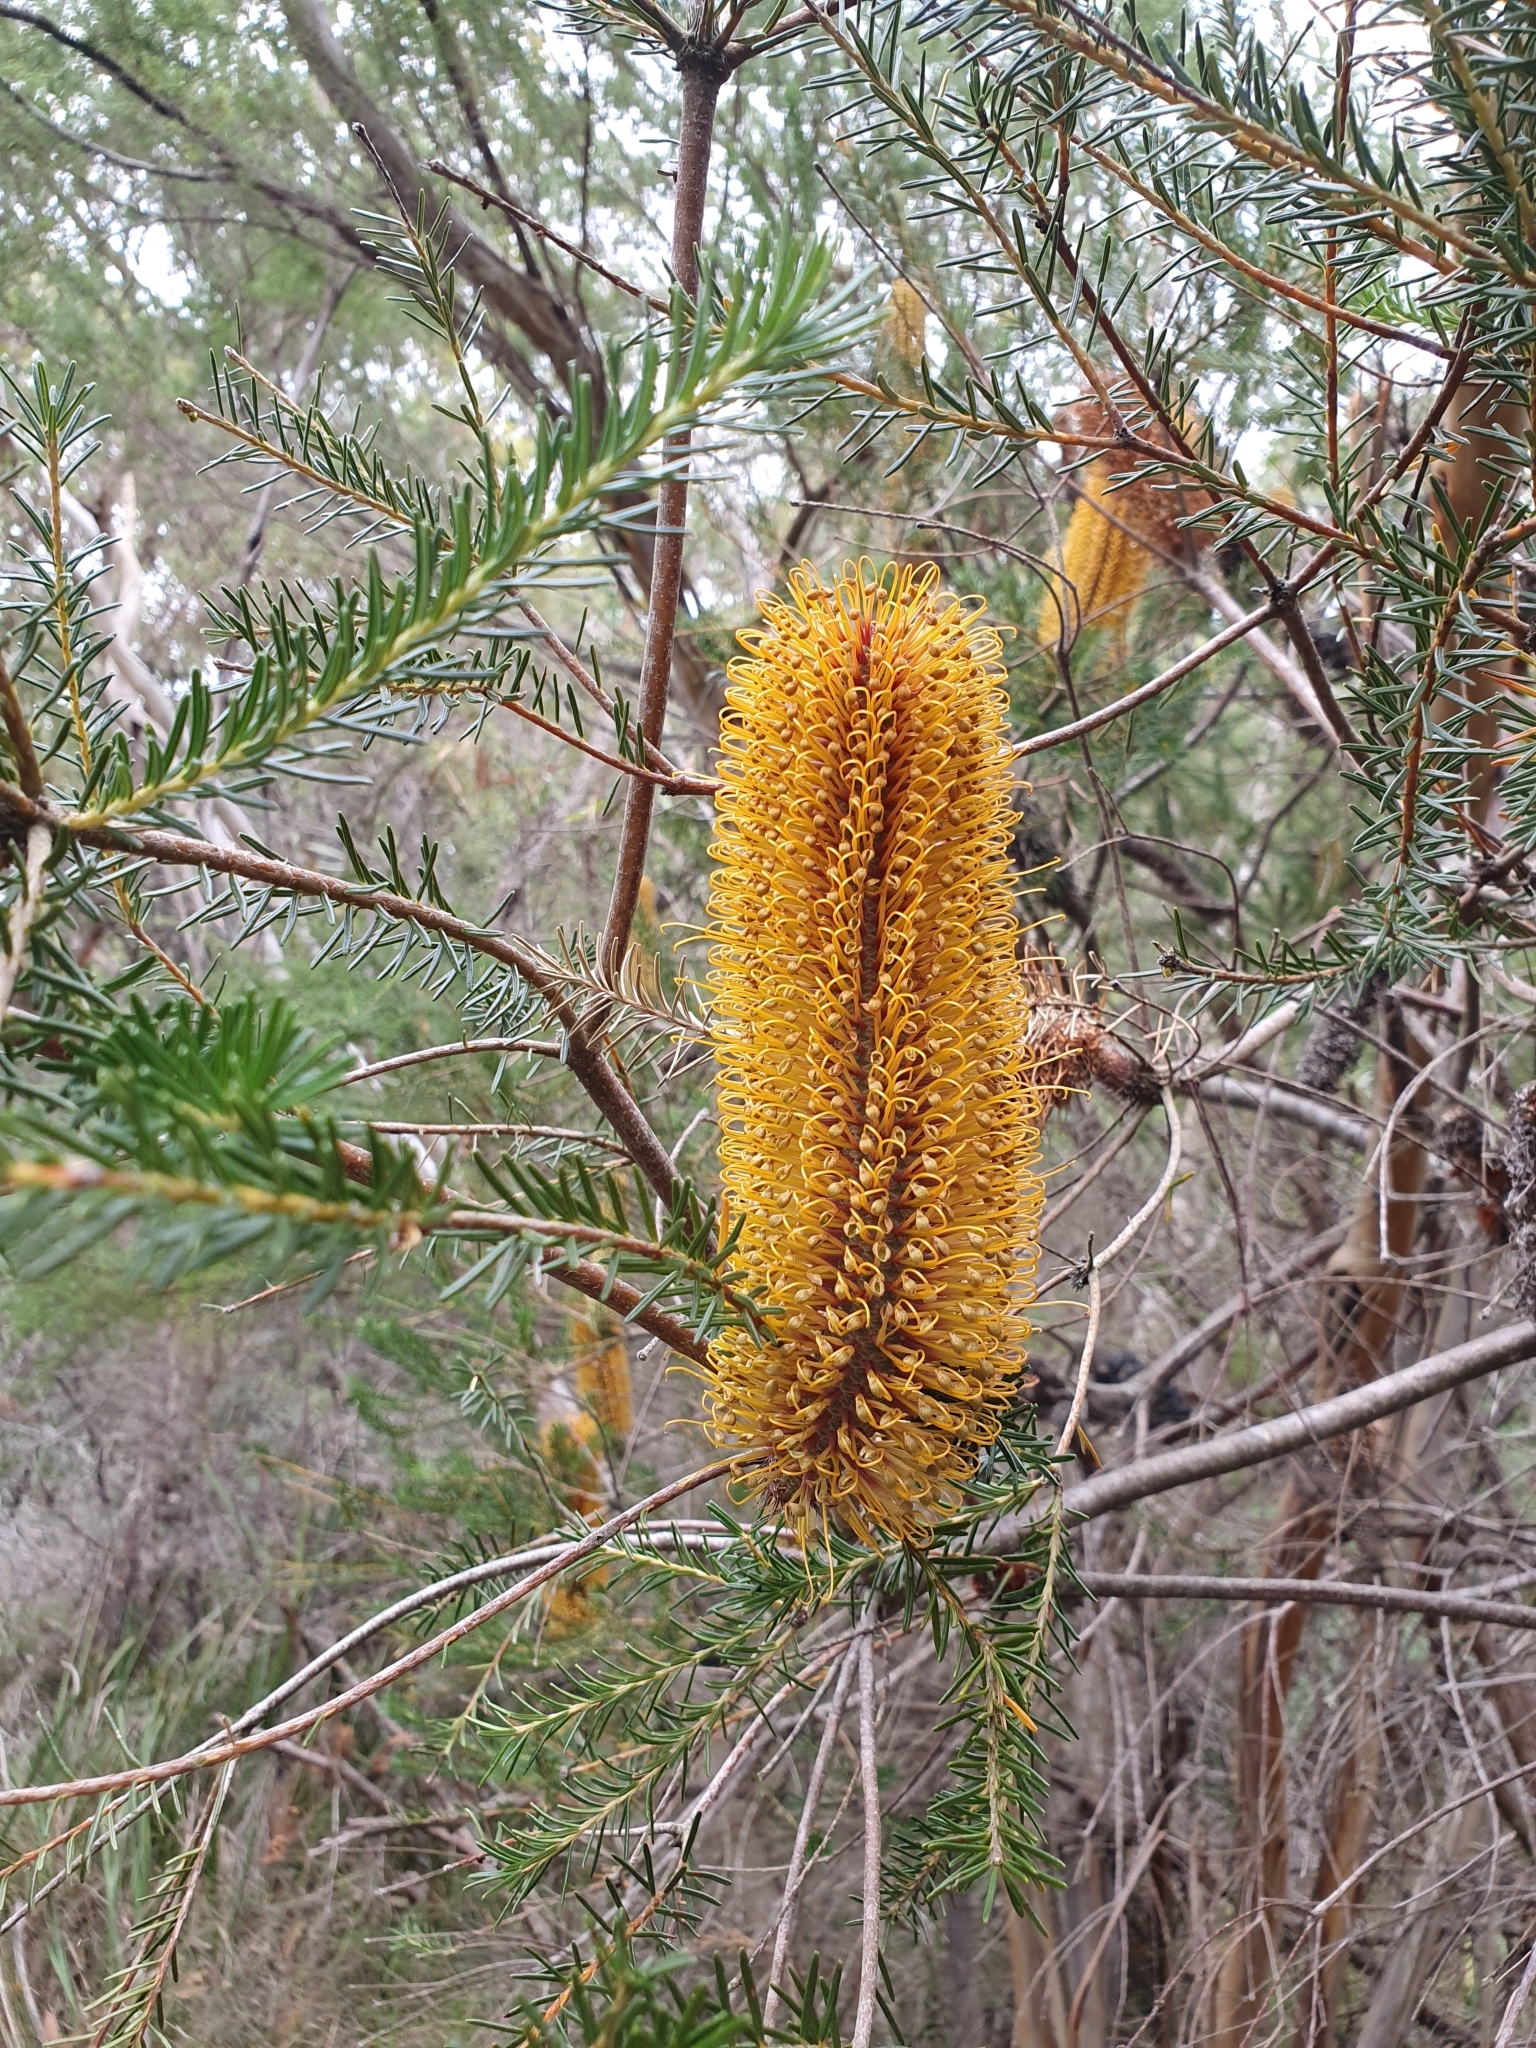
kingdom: Plantae
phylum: Tracheophyta
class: Magnoliopsida
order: Proteales
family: Proteaceae
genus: Banksia
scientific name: Banksia ericifolia
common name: Heath-leaf banksia
